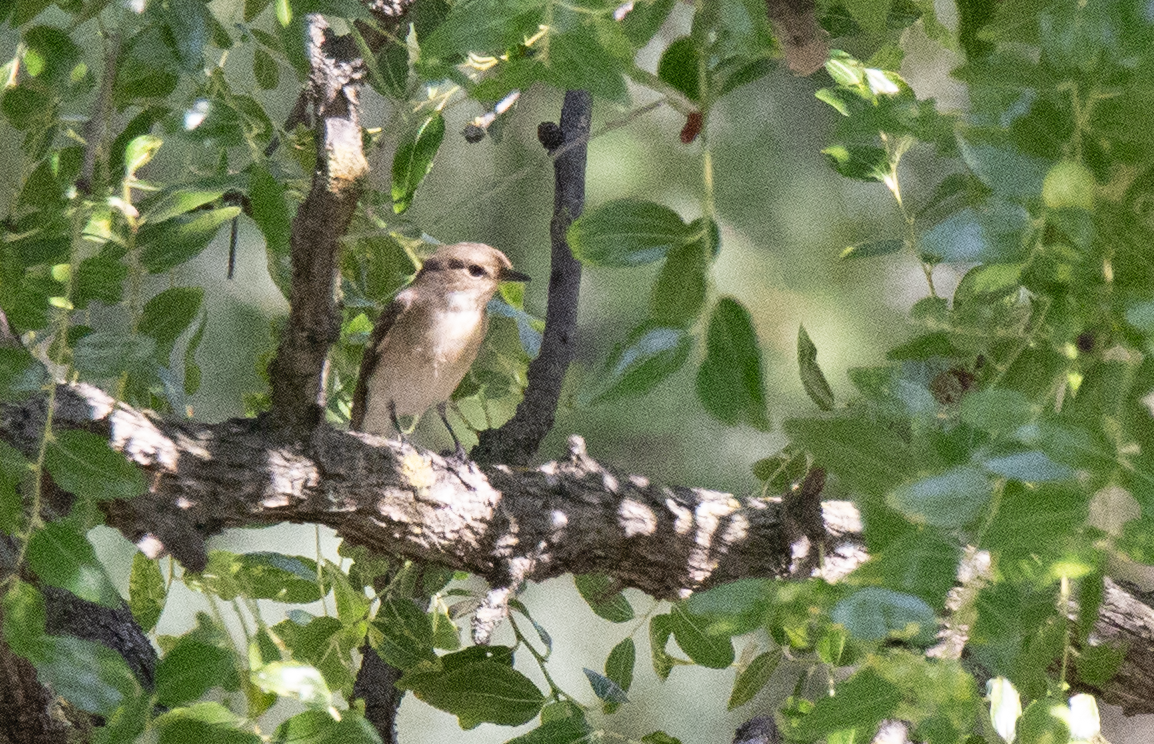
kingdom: Animalia
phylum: Chordata
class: Aves
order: Passeriformes
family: Muscicapidae
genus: Ficedula
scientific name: Ficedula hypoleuca
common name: European pied flycatcher
